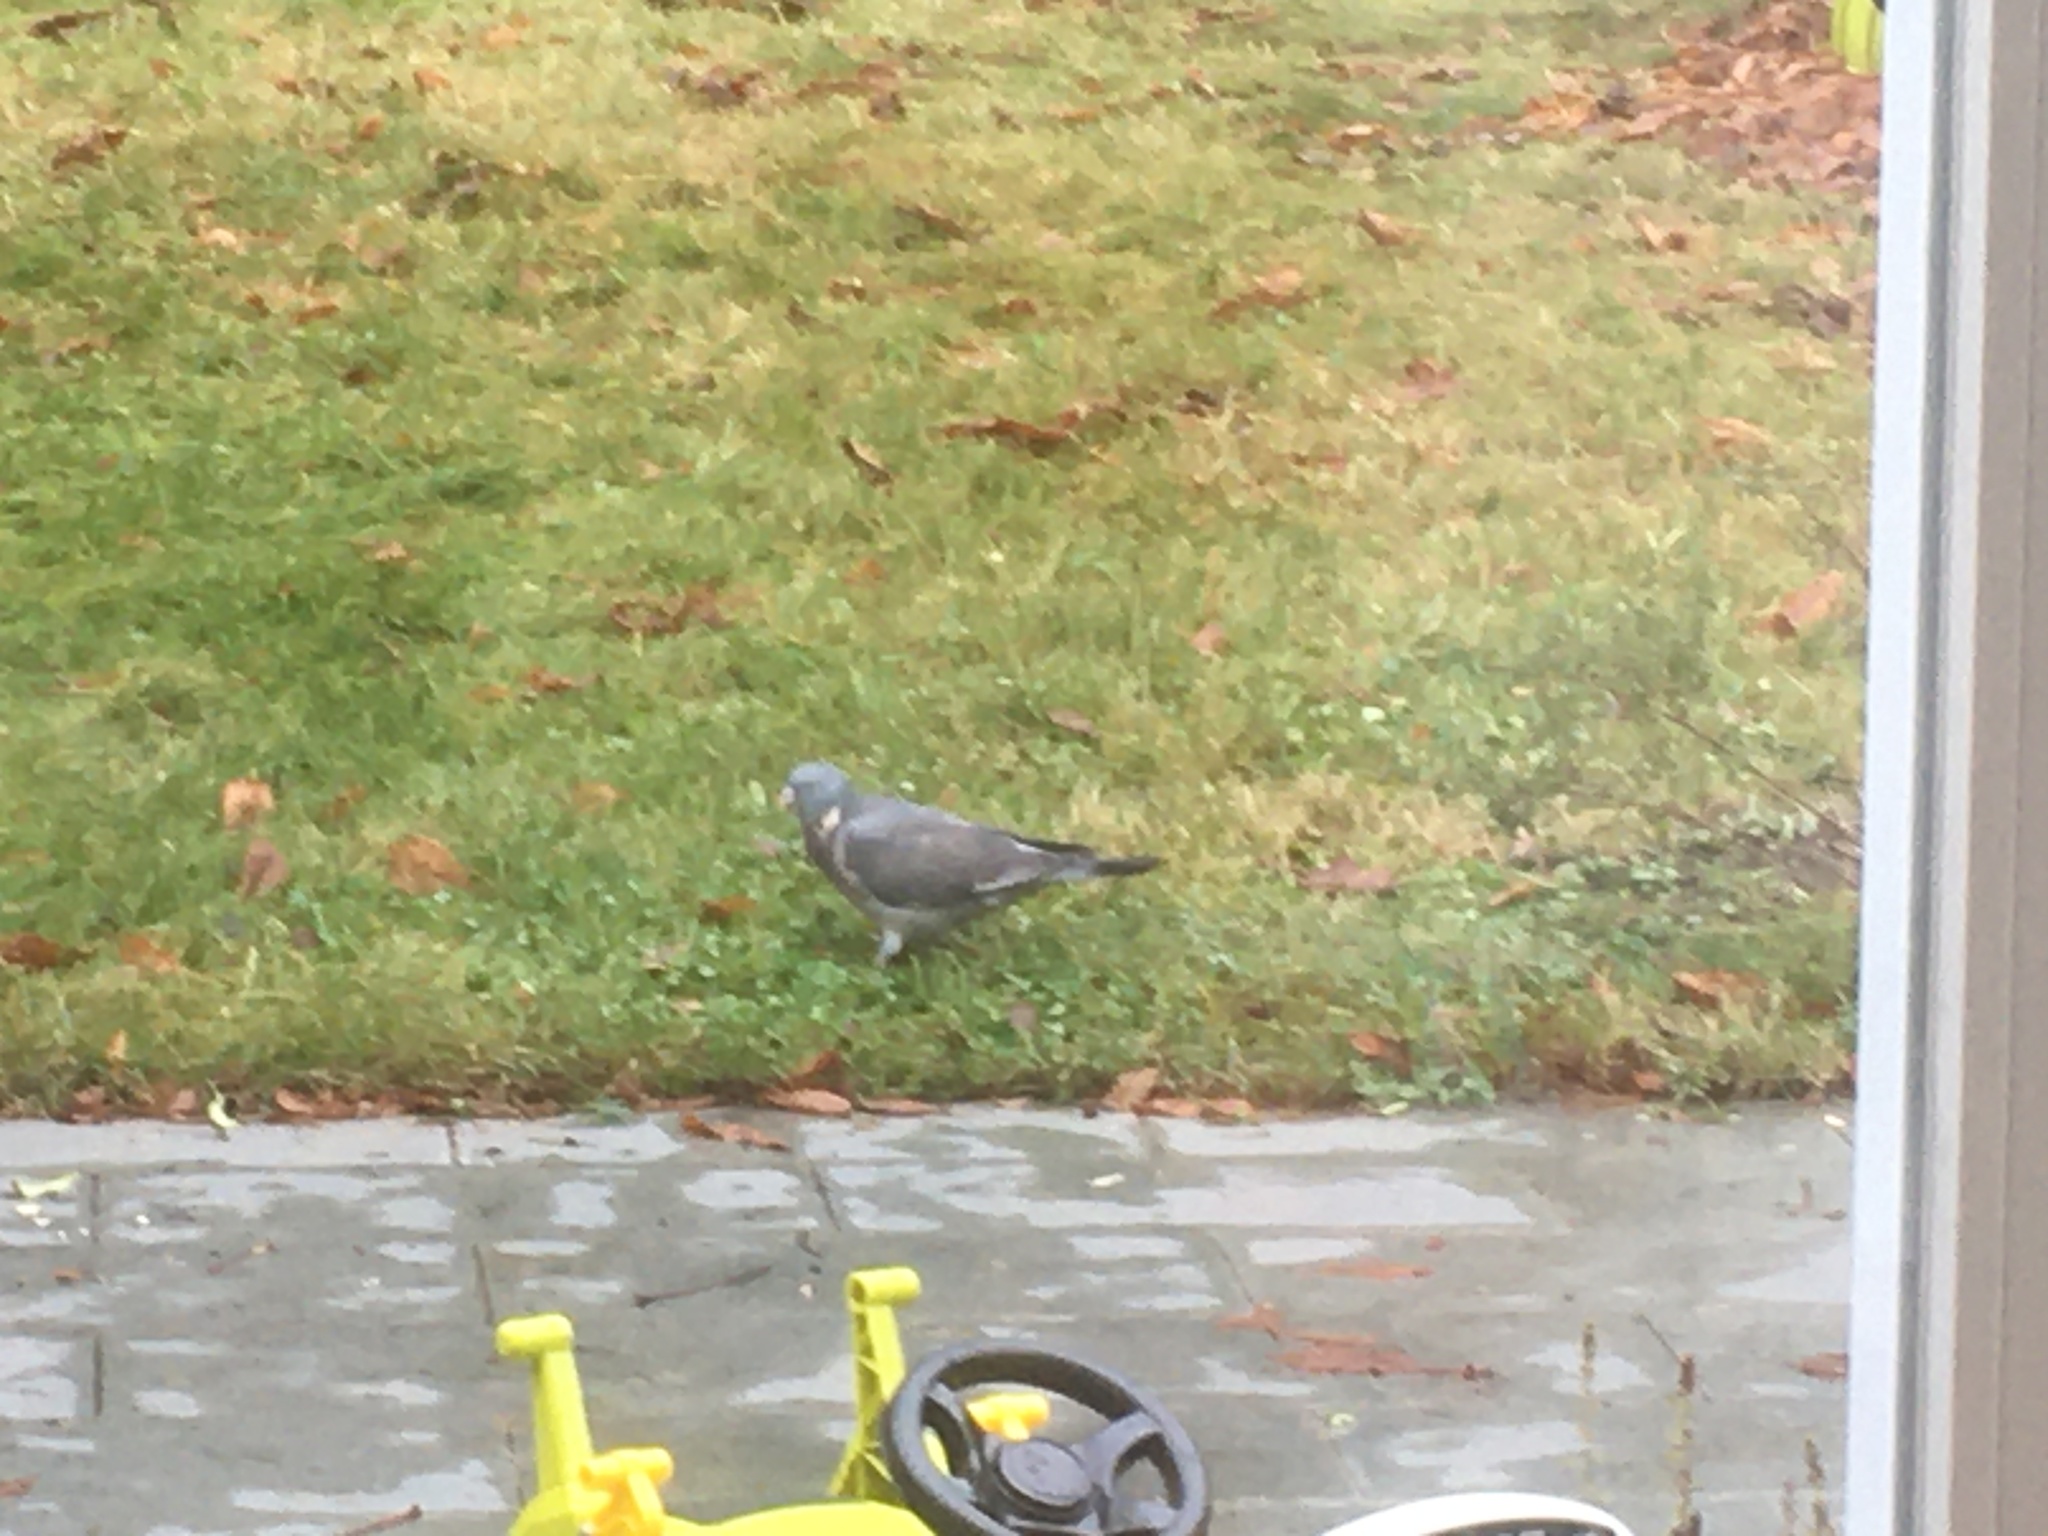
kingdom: Animalia
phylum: Chordata
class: Aves
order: Columbiformes
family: Columbidae
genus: Columba
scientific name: Columba palumbus
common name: Common wood pigeon
